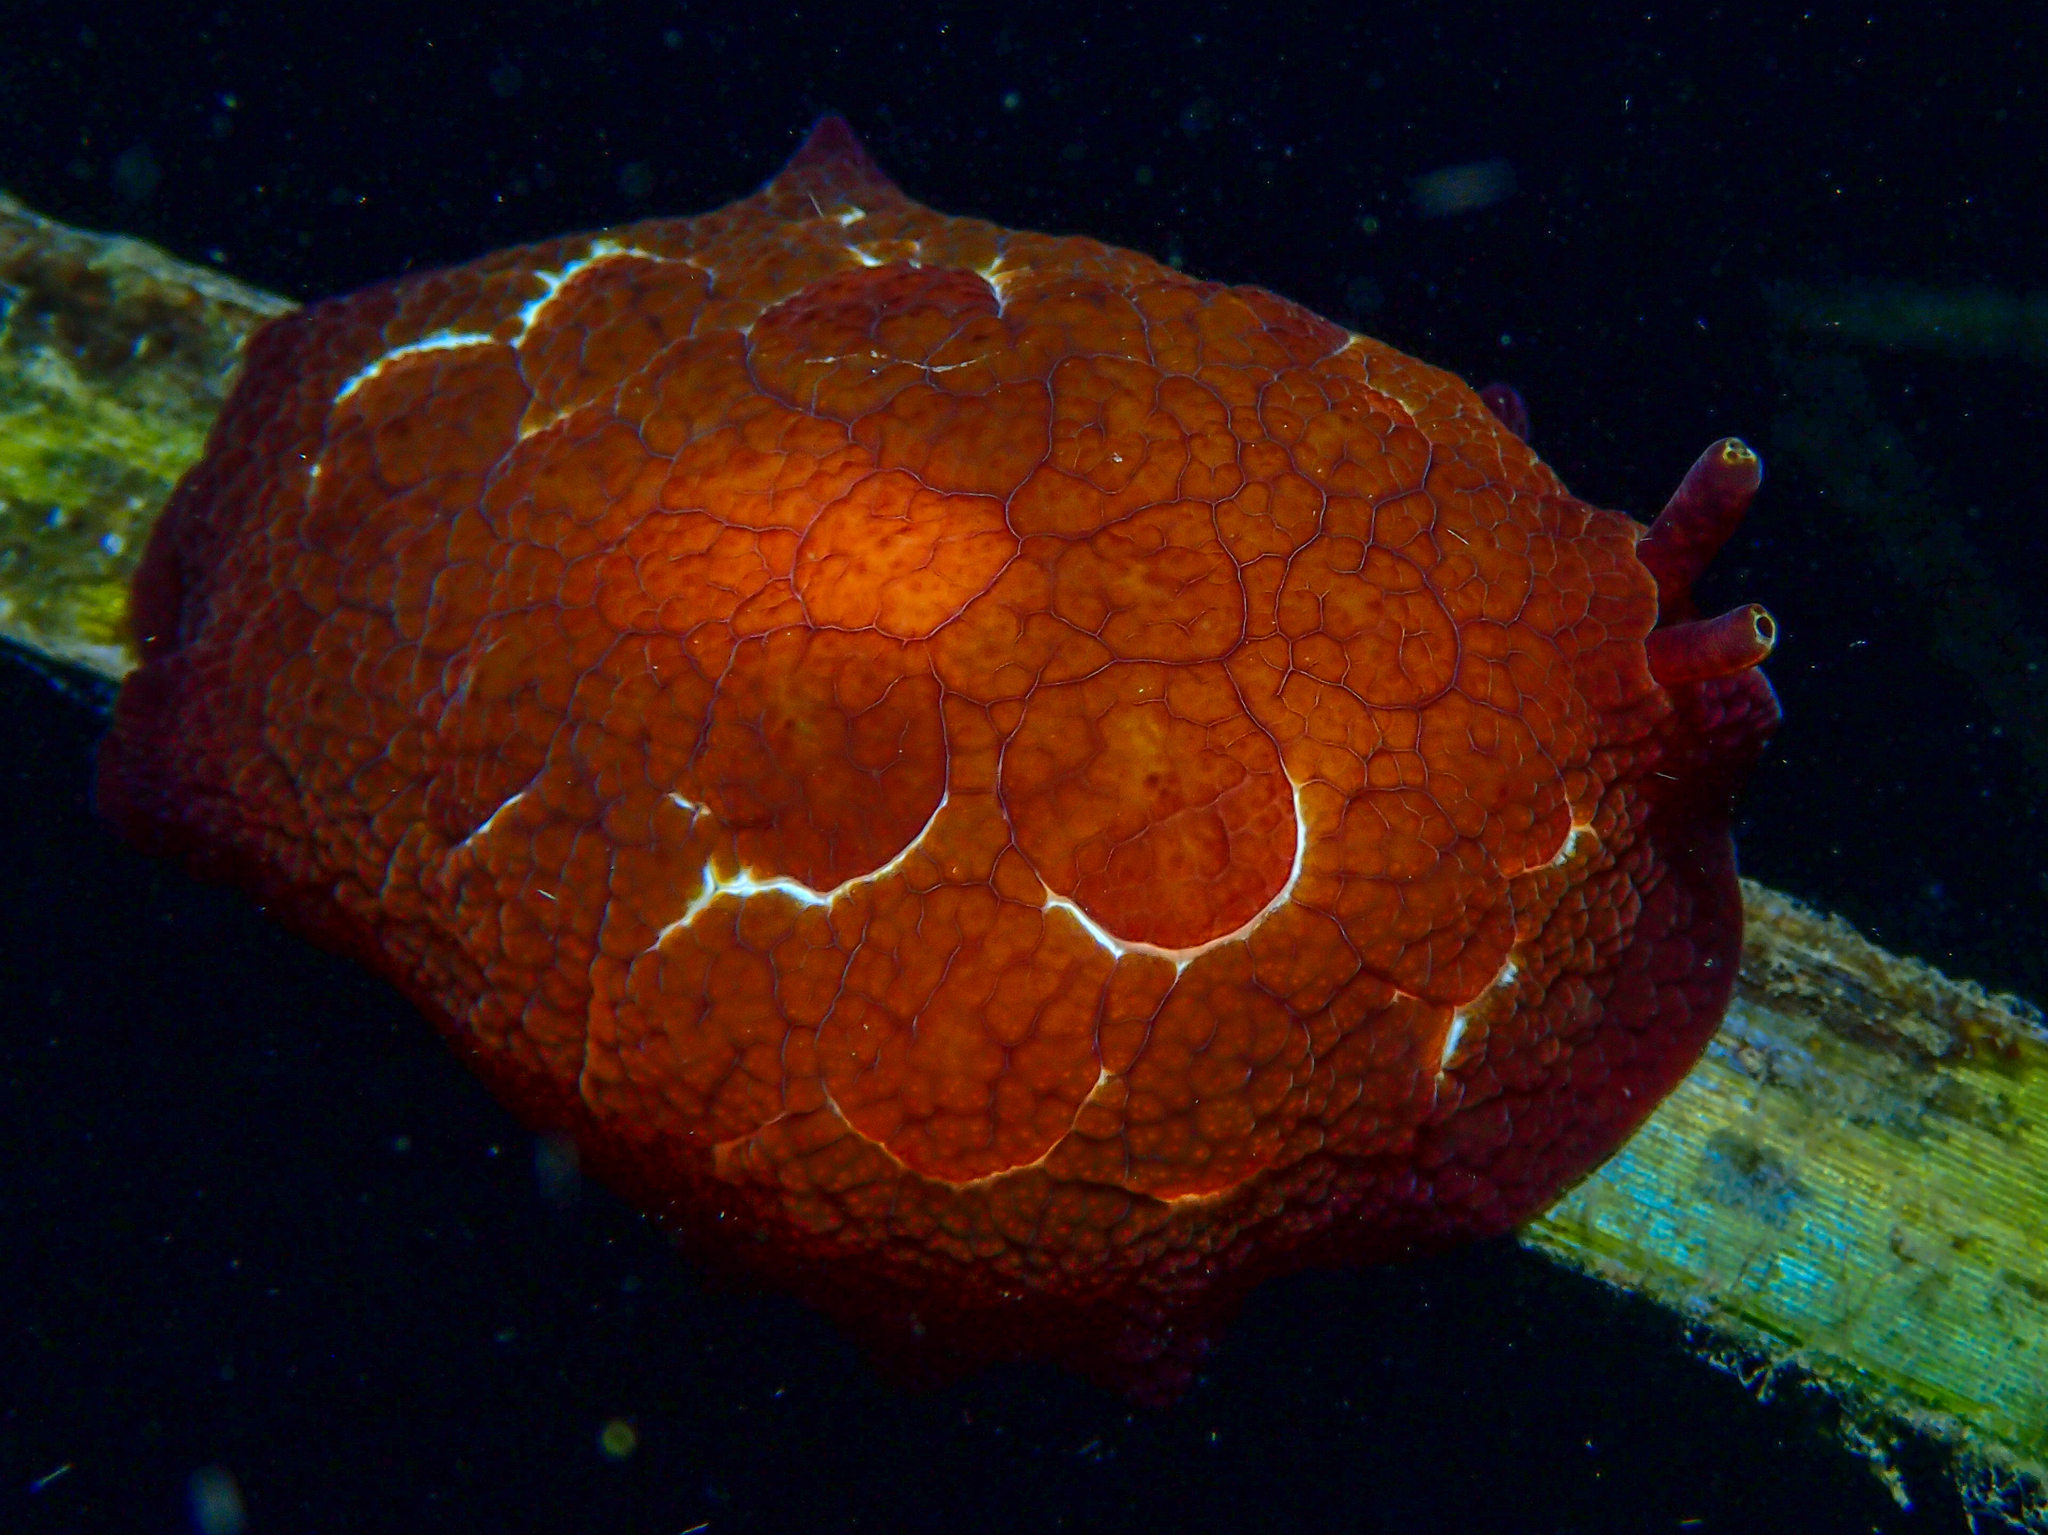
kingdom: Animalia
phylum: Mollusca
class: Gastropoda
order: Pleurobranchida
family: Pleurobranchidae
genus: Pleurobranchus
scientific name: Pleurobranchus forskalii
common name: Forskal's side-gilled sea slug
